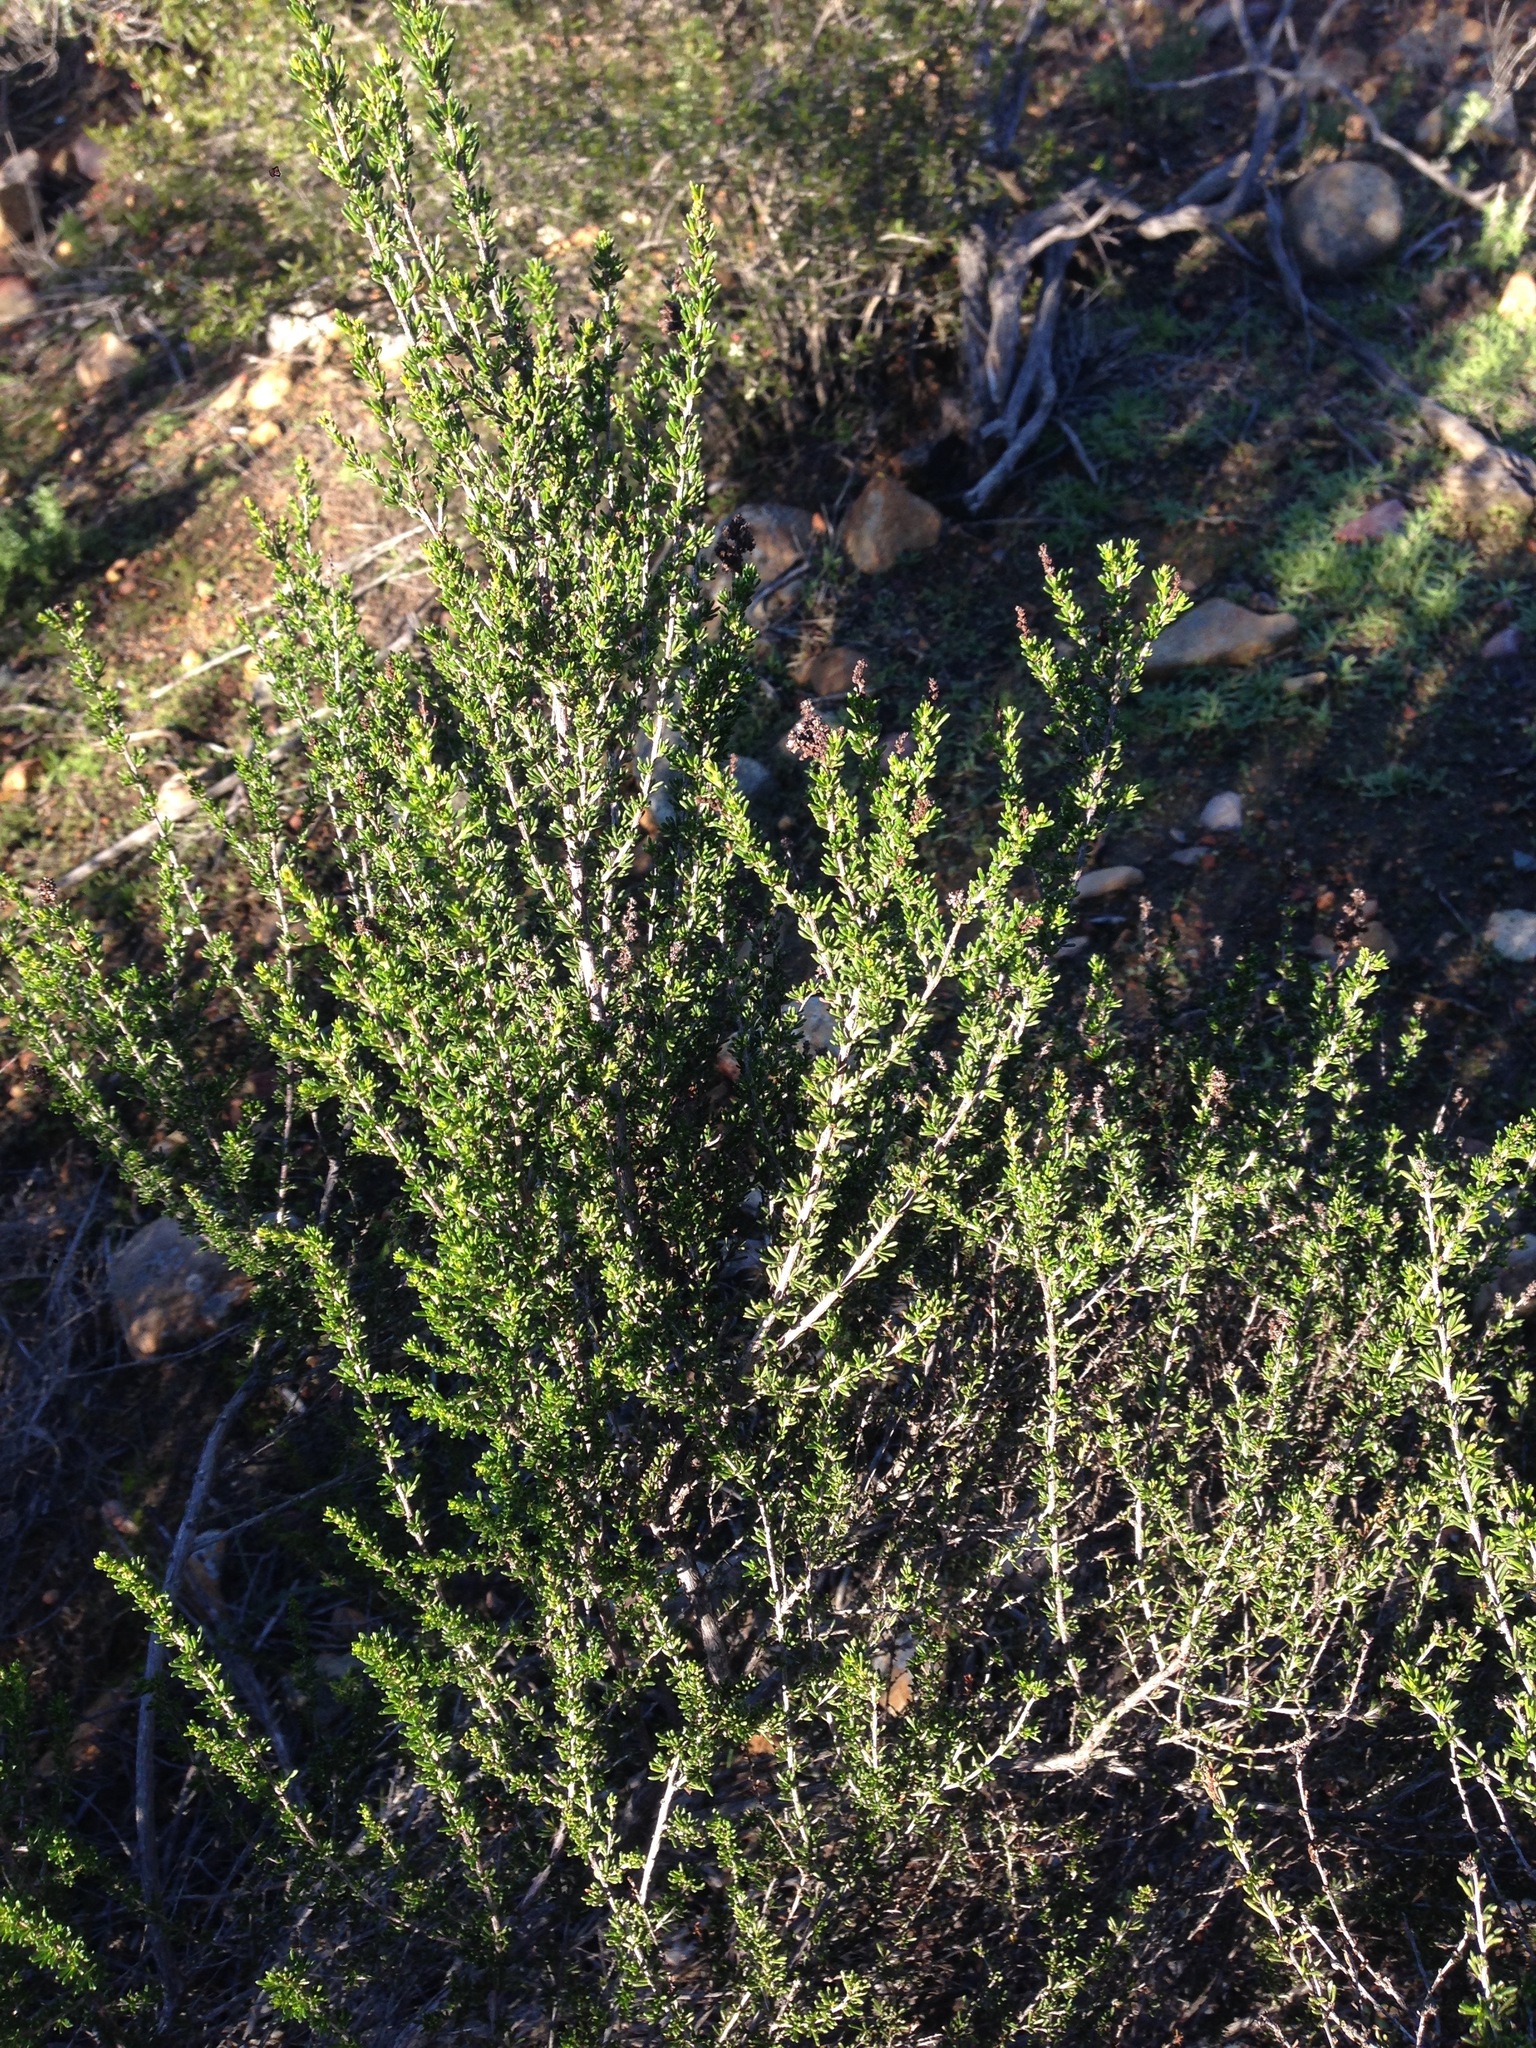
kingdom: Plantae
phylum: Tracheophyta
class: Magnoliopsida
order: Rosales
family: Rosaceae
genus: Adenostoma
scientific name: Adenostoma fasciculatum
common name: Chamise
